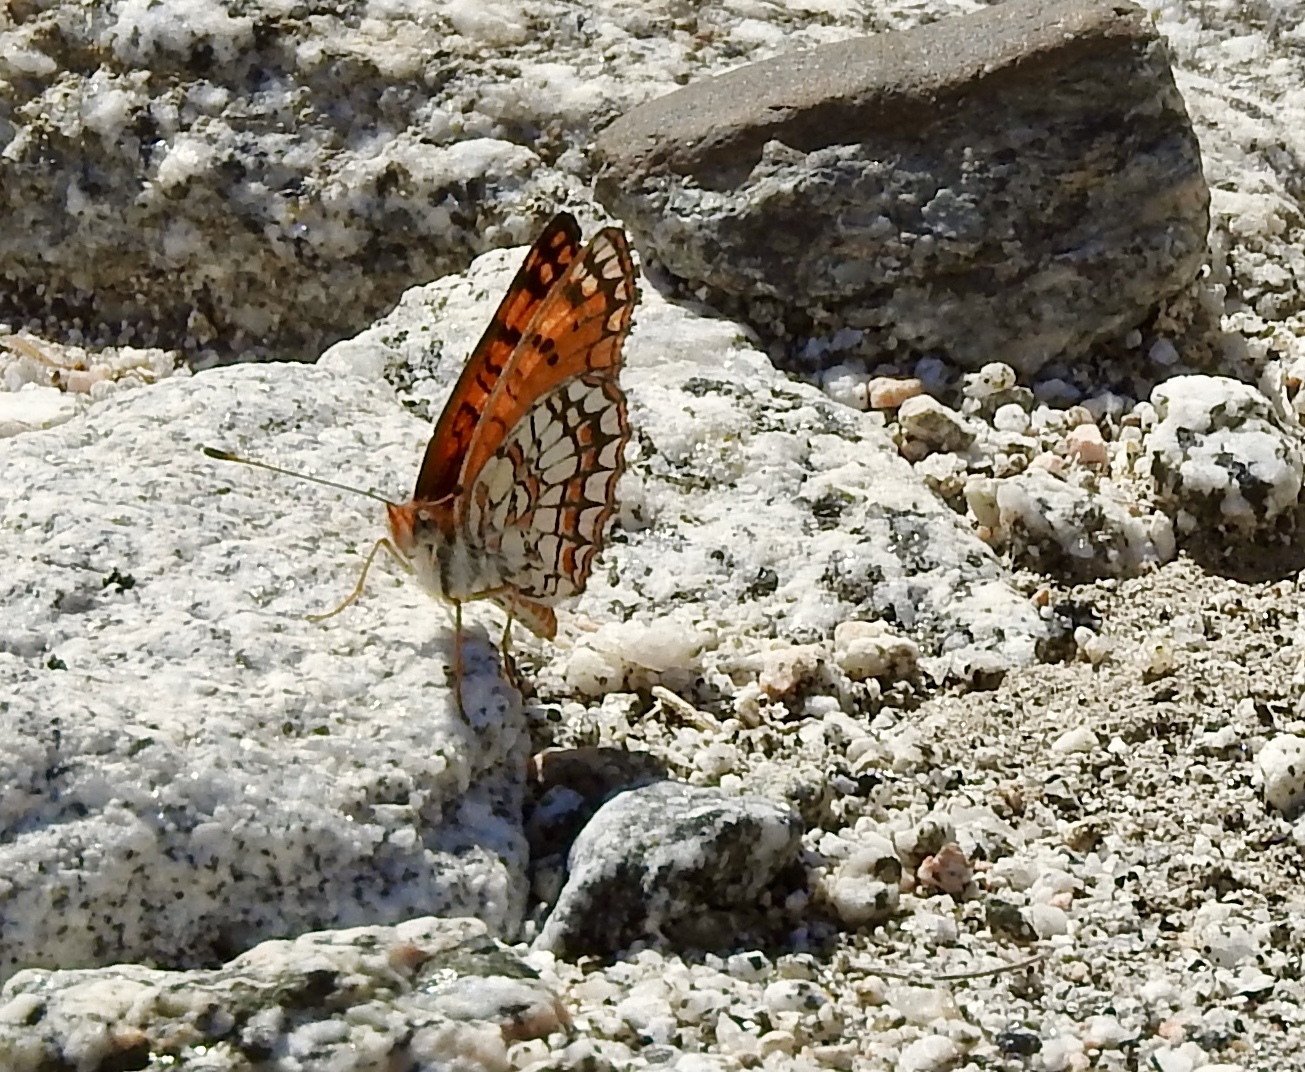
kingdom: Animalia
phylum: Arthropoda
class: Insecta
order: Lepidoptera
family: Nymphalidae
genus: Chlosyne
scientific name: Chlosyne acastus
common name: Sagebrush checkerspot
